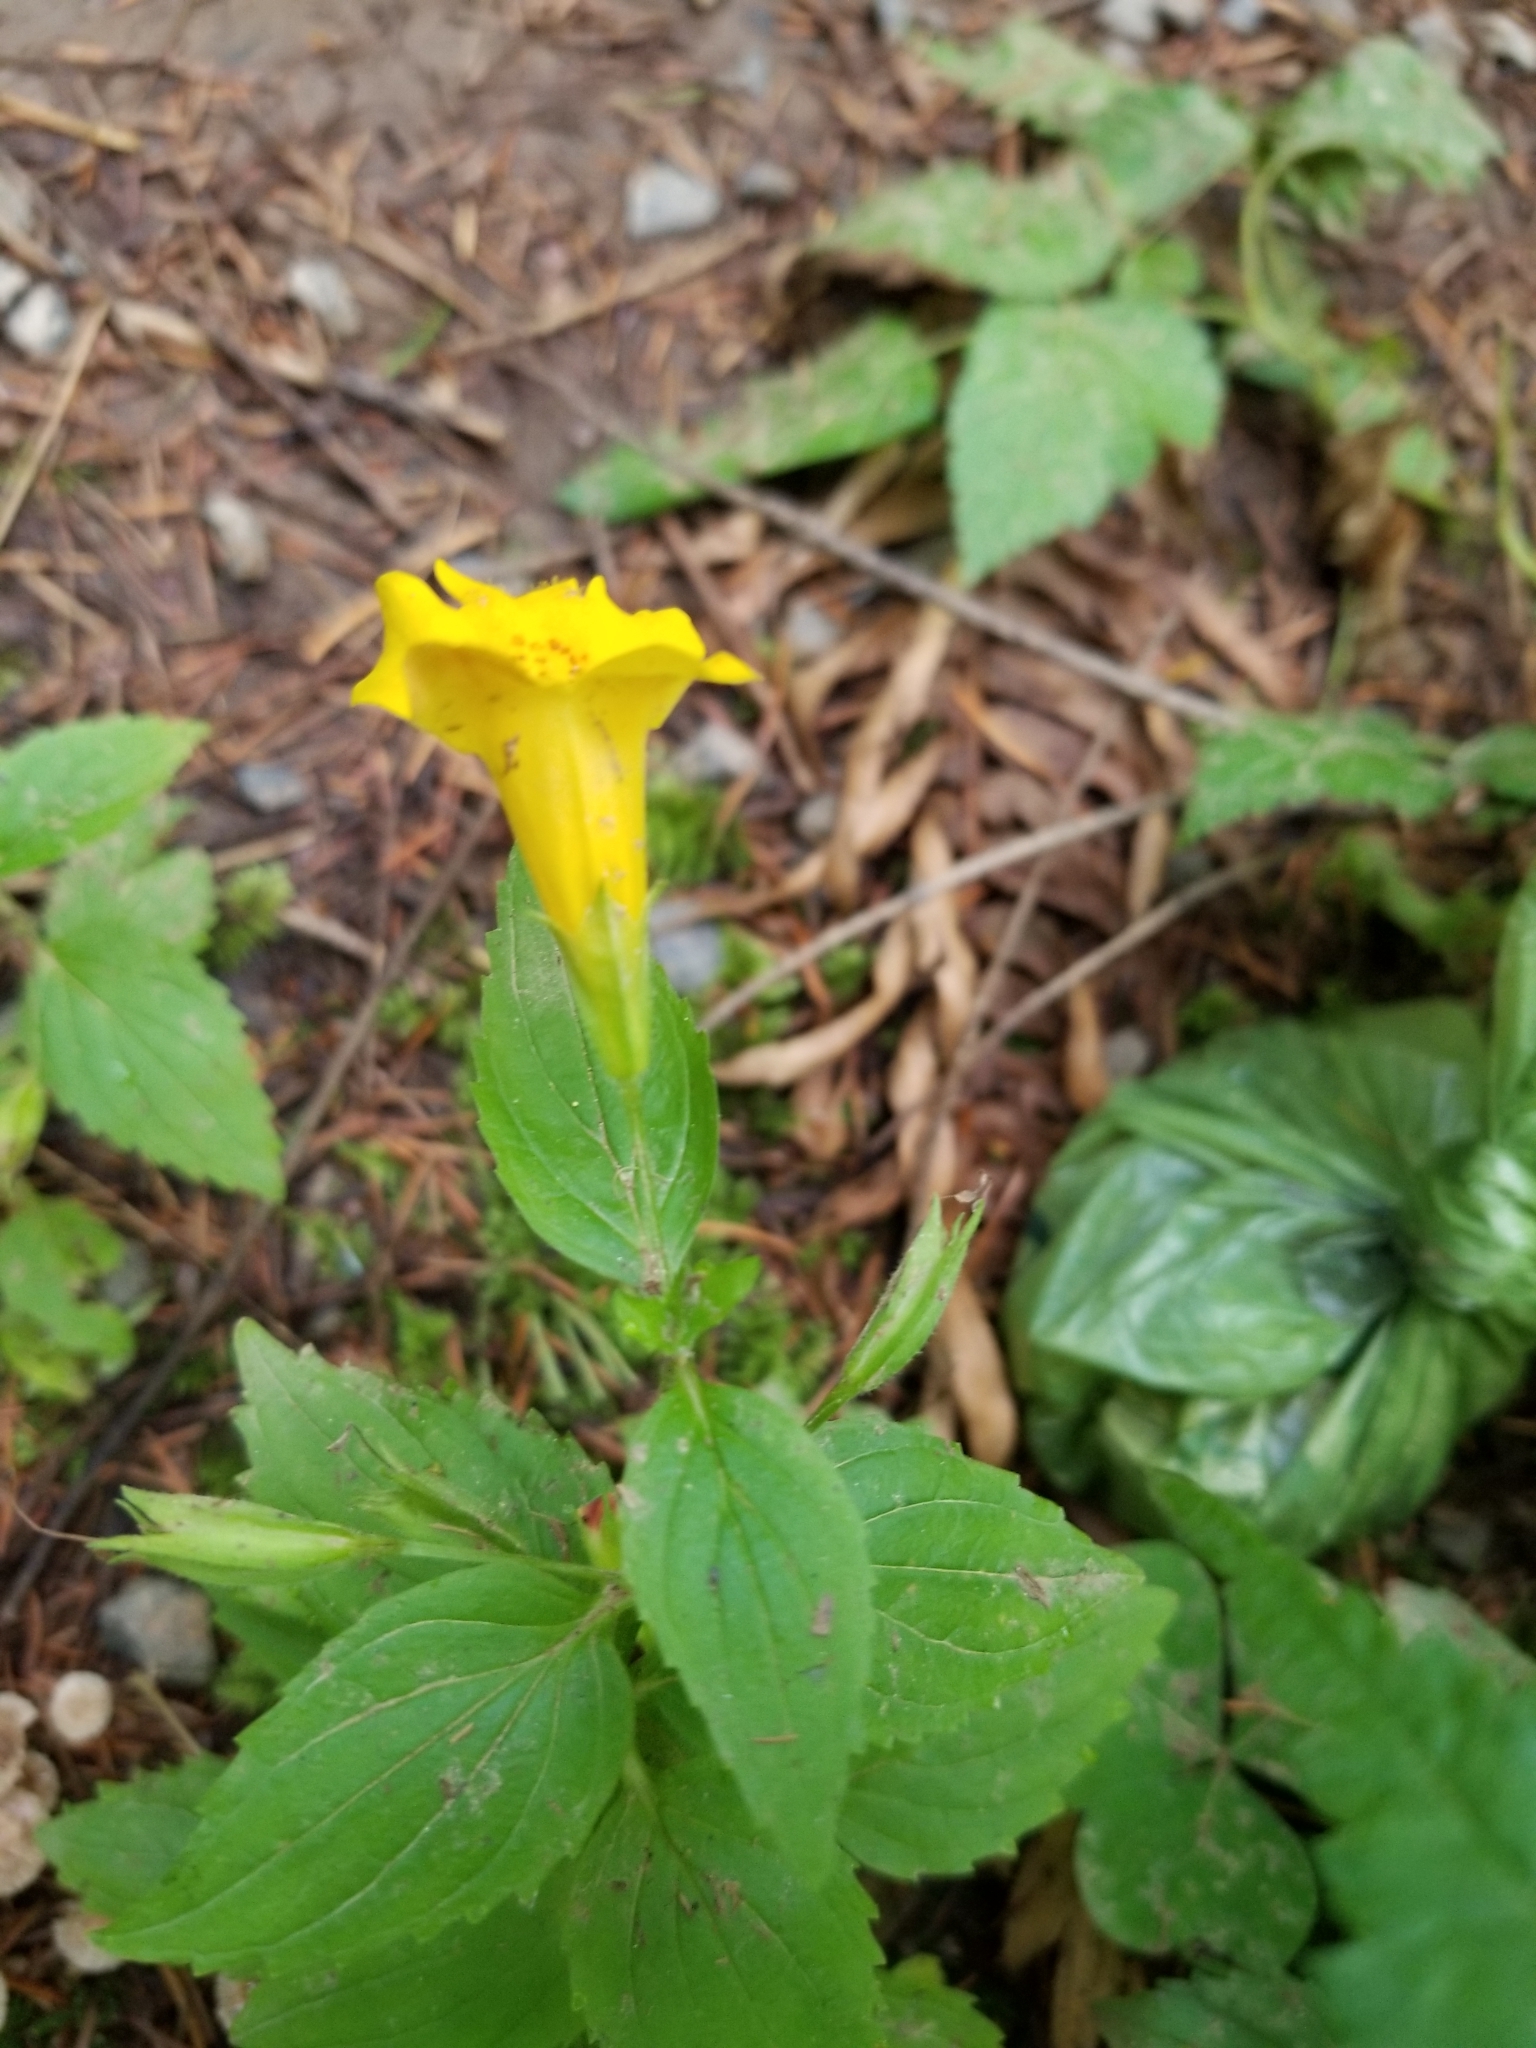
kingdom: Plantae
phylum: Tracheophyta
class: Magnoliopsida
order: Lamiales
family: Phrymaceae
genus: Erythranthe
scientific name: Erythranthe dentata
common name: Coastal monkeyflower
